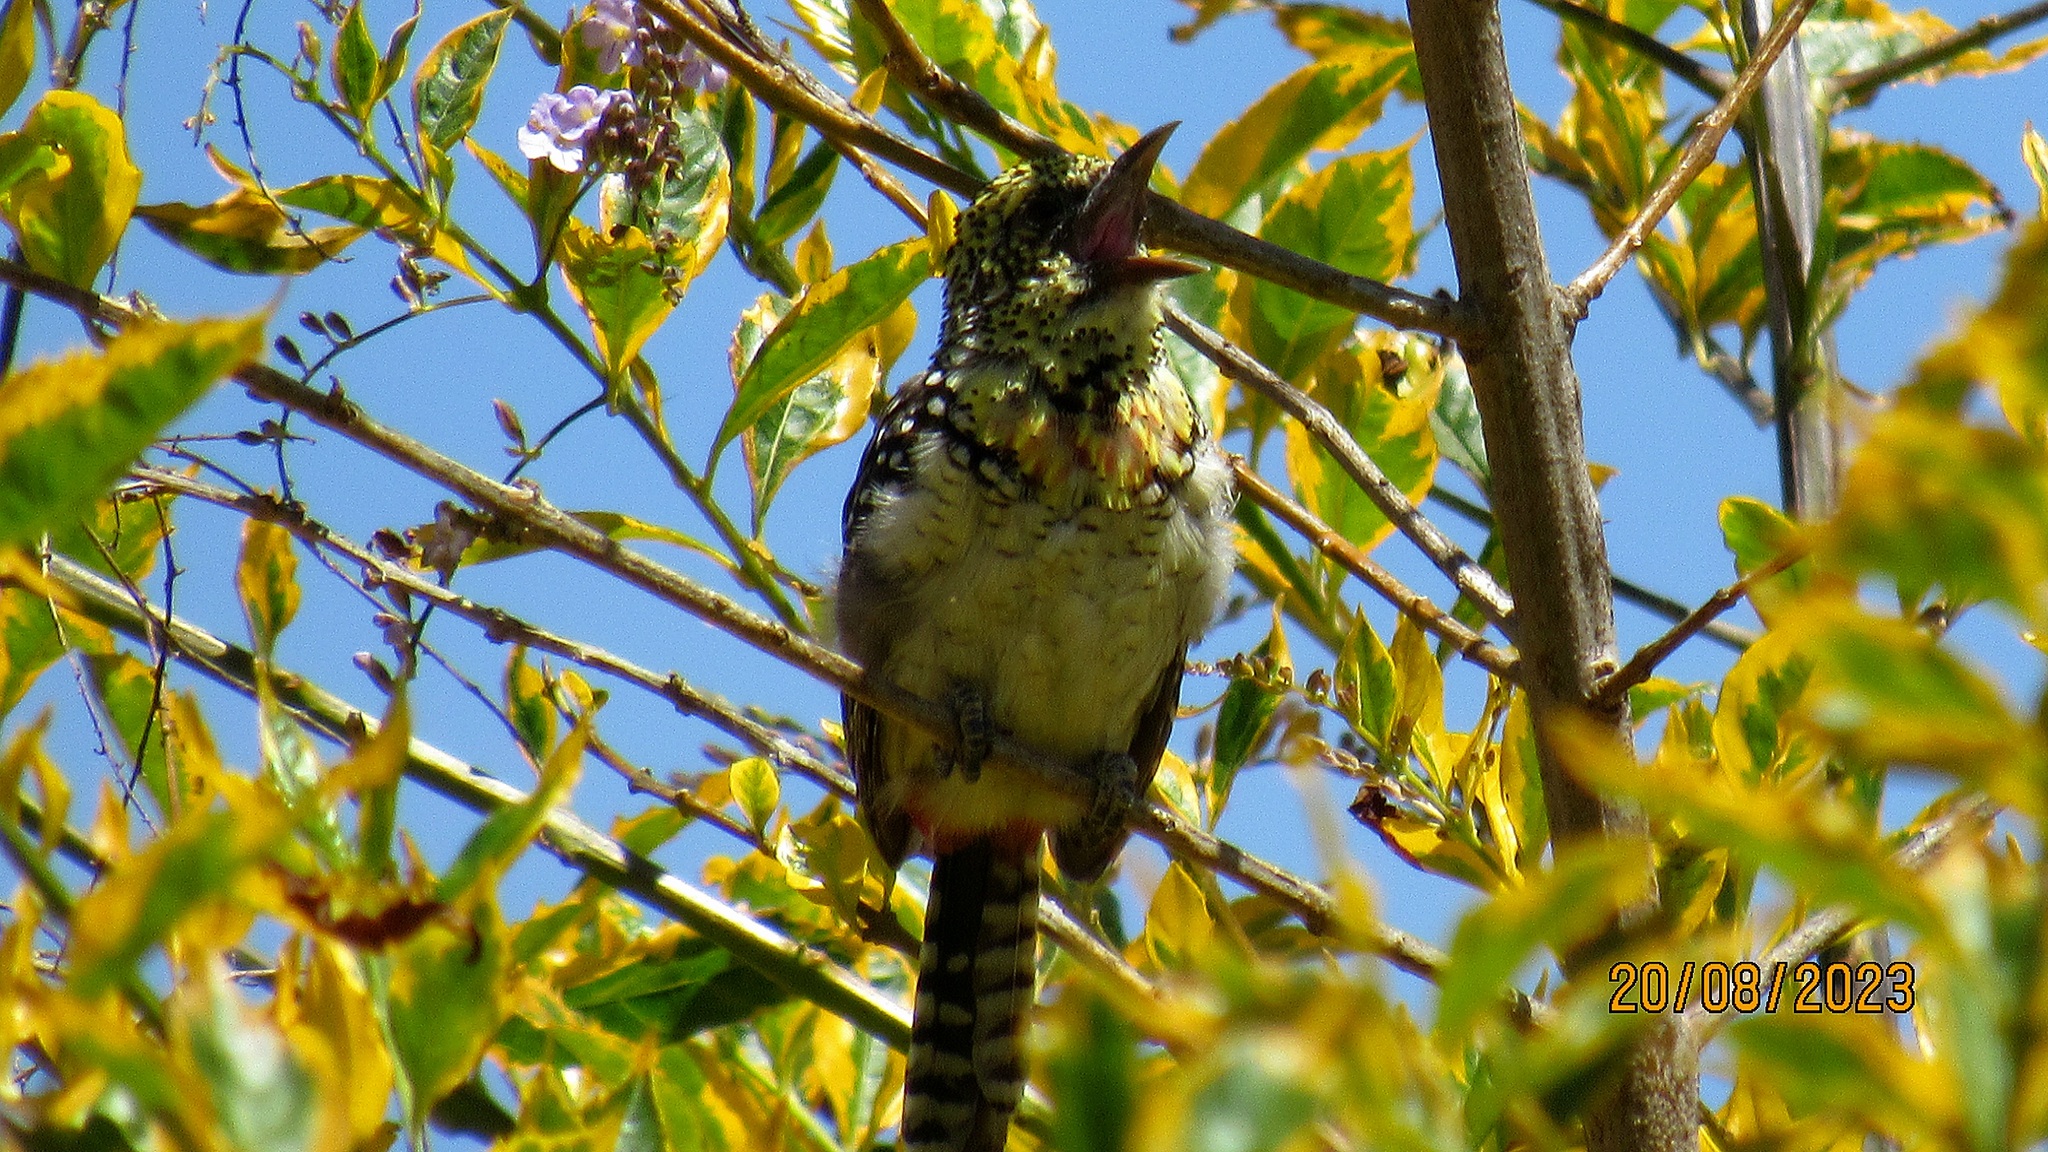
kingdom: Animalia
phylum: Chordata
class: Aves
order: Piciformes
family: Lybiidae
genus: Trachyphonus
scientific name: Trachyphonus darnaudii
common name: D'arnaud's barbet
